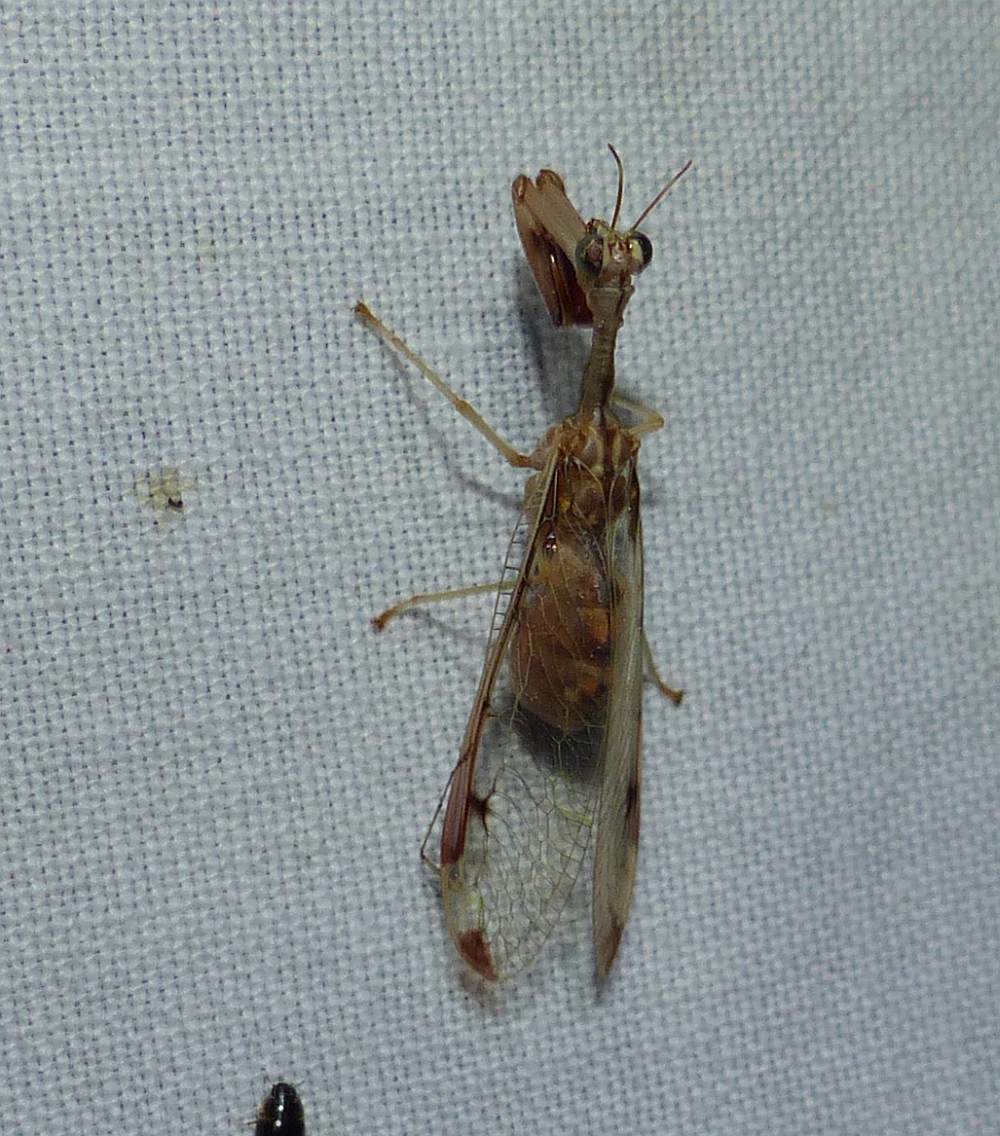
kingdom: Animalia
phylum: Arthropoda
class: Insecta
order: Neuroptera
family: Mantispidae
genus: Dicromantispa
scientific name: Dicromantispa interrupta
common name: Four-spotted mantidfly
